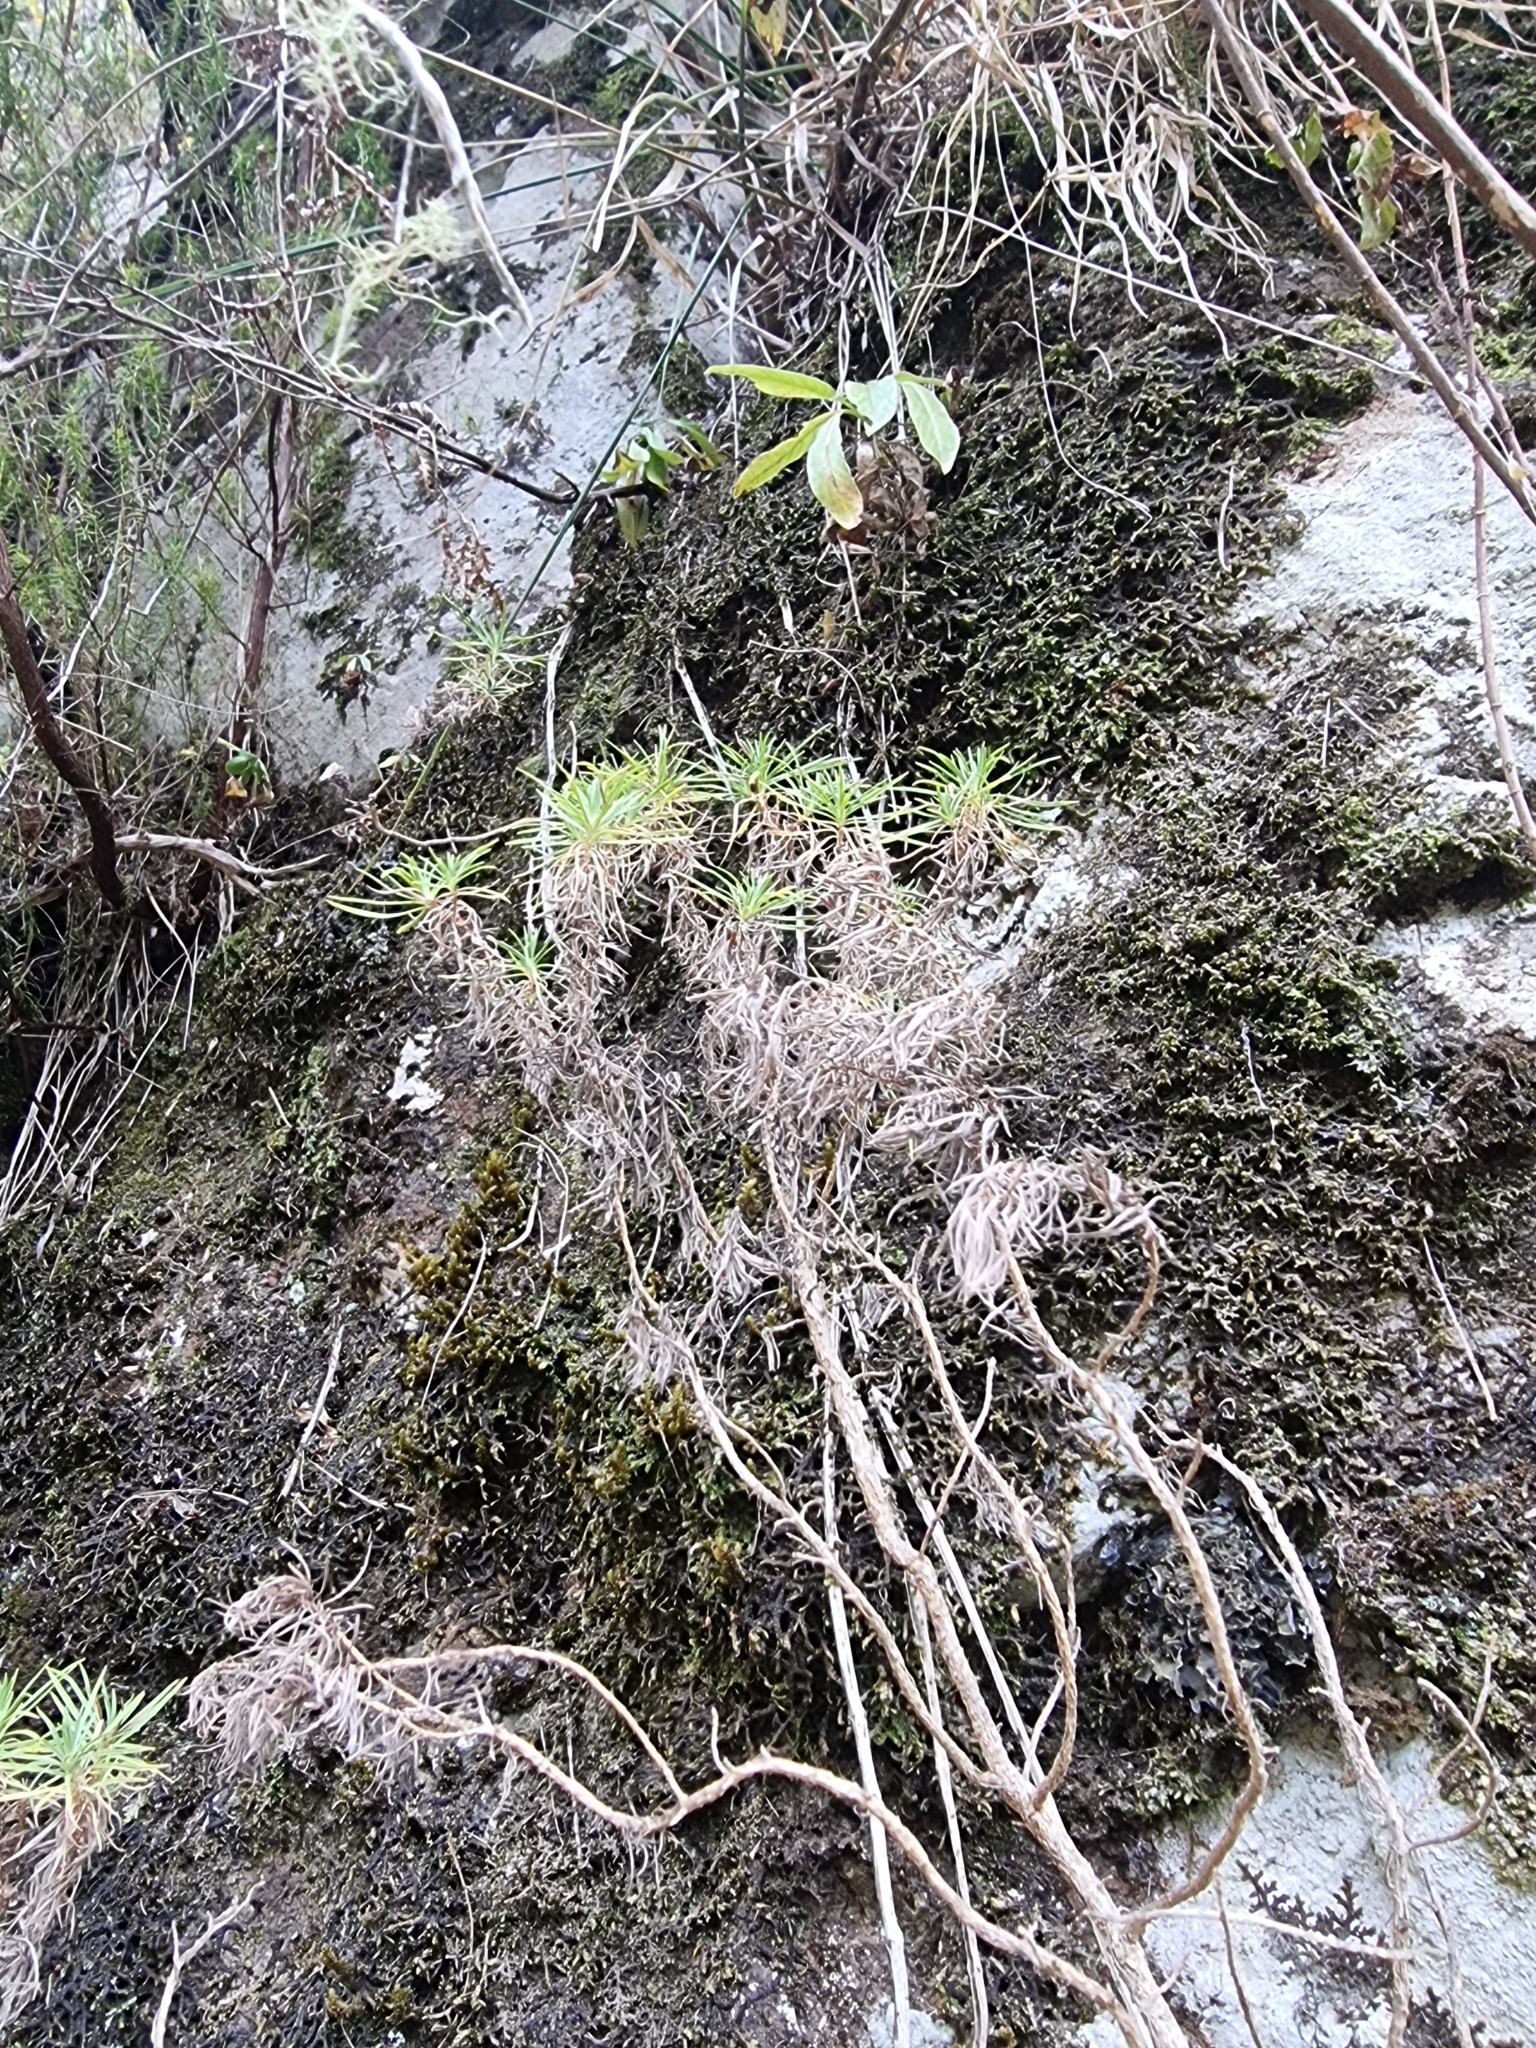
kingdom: Plantae
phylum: Tracheophyta
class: Magnoliopsida
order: Lamiales
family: Plantaginaceae
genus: Plantago
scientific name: Plantago arborescens
